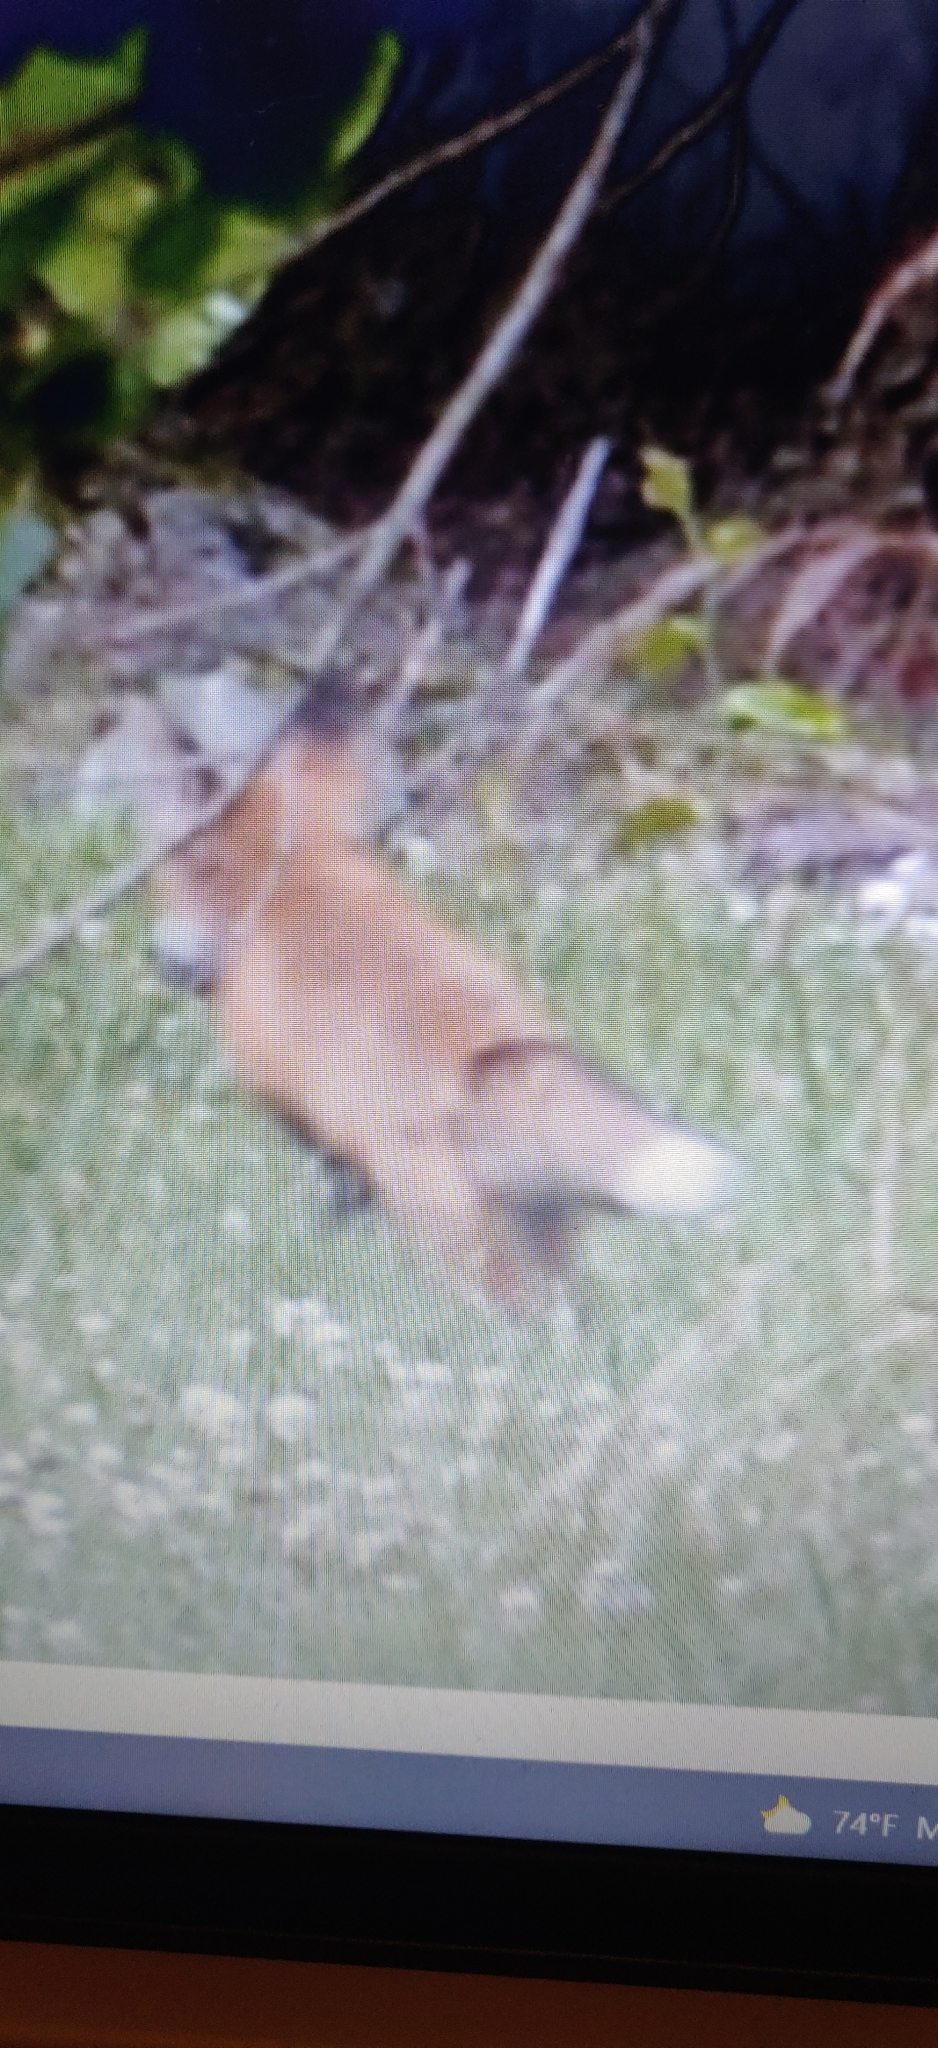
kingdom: Animalia
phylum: Chordata
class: Mammalia
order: Carnivora
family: Canidae
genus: Vulpes
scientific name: Vulpes vulpes
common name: Red fox
